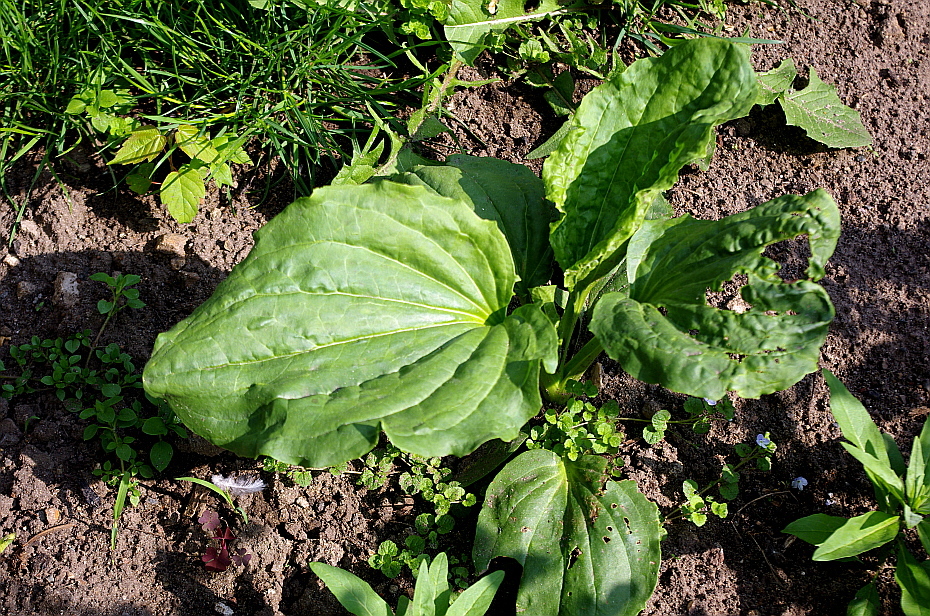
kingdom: Plantae
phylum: Tracheophyta
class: Magnoliopsida
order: Lamiales
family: Plantaginaceae
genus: Plantago
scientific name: Plantago major
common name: Common plantain
